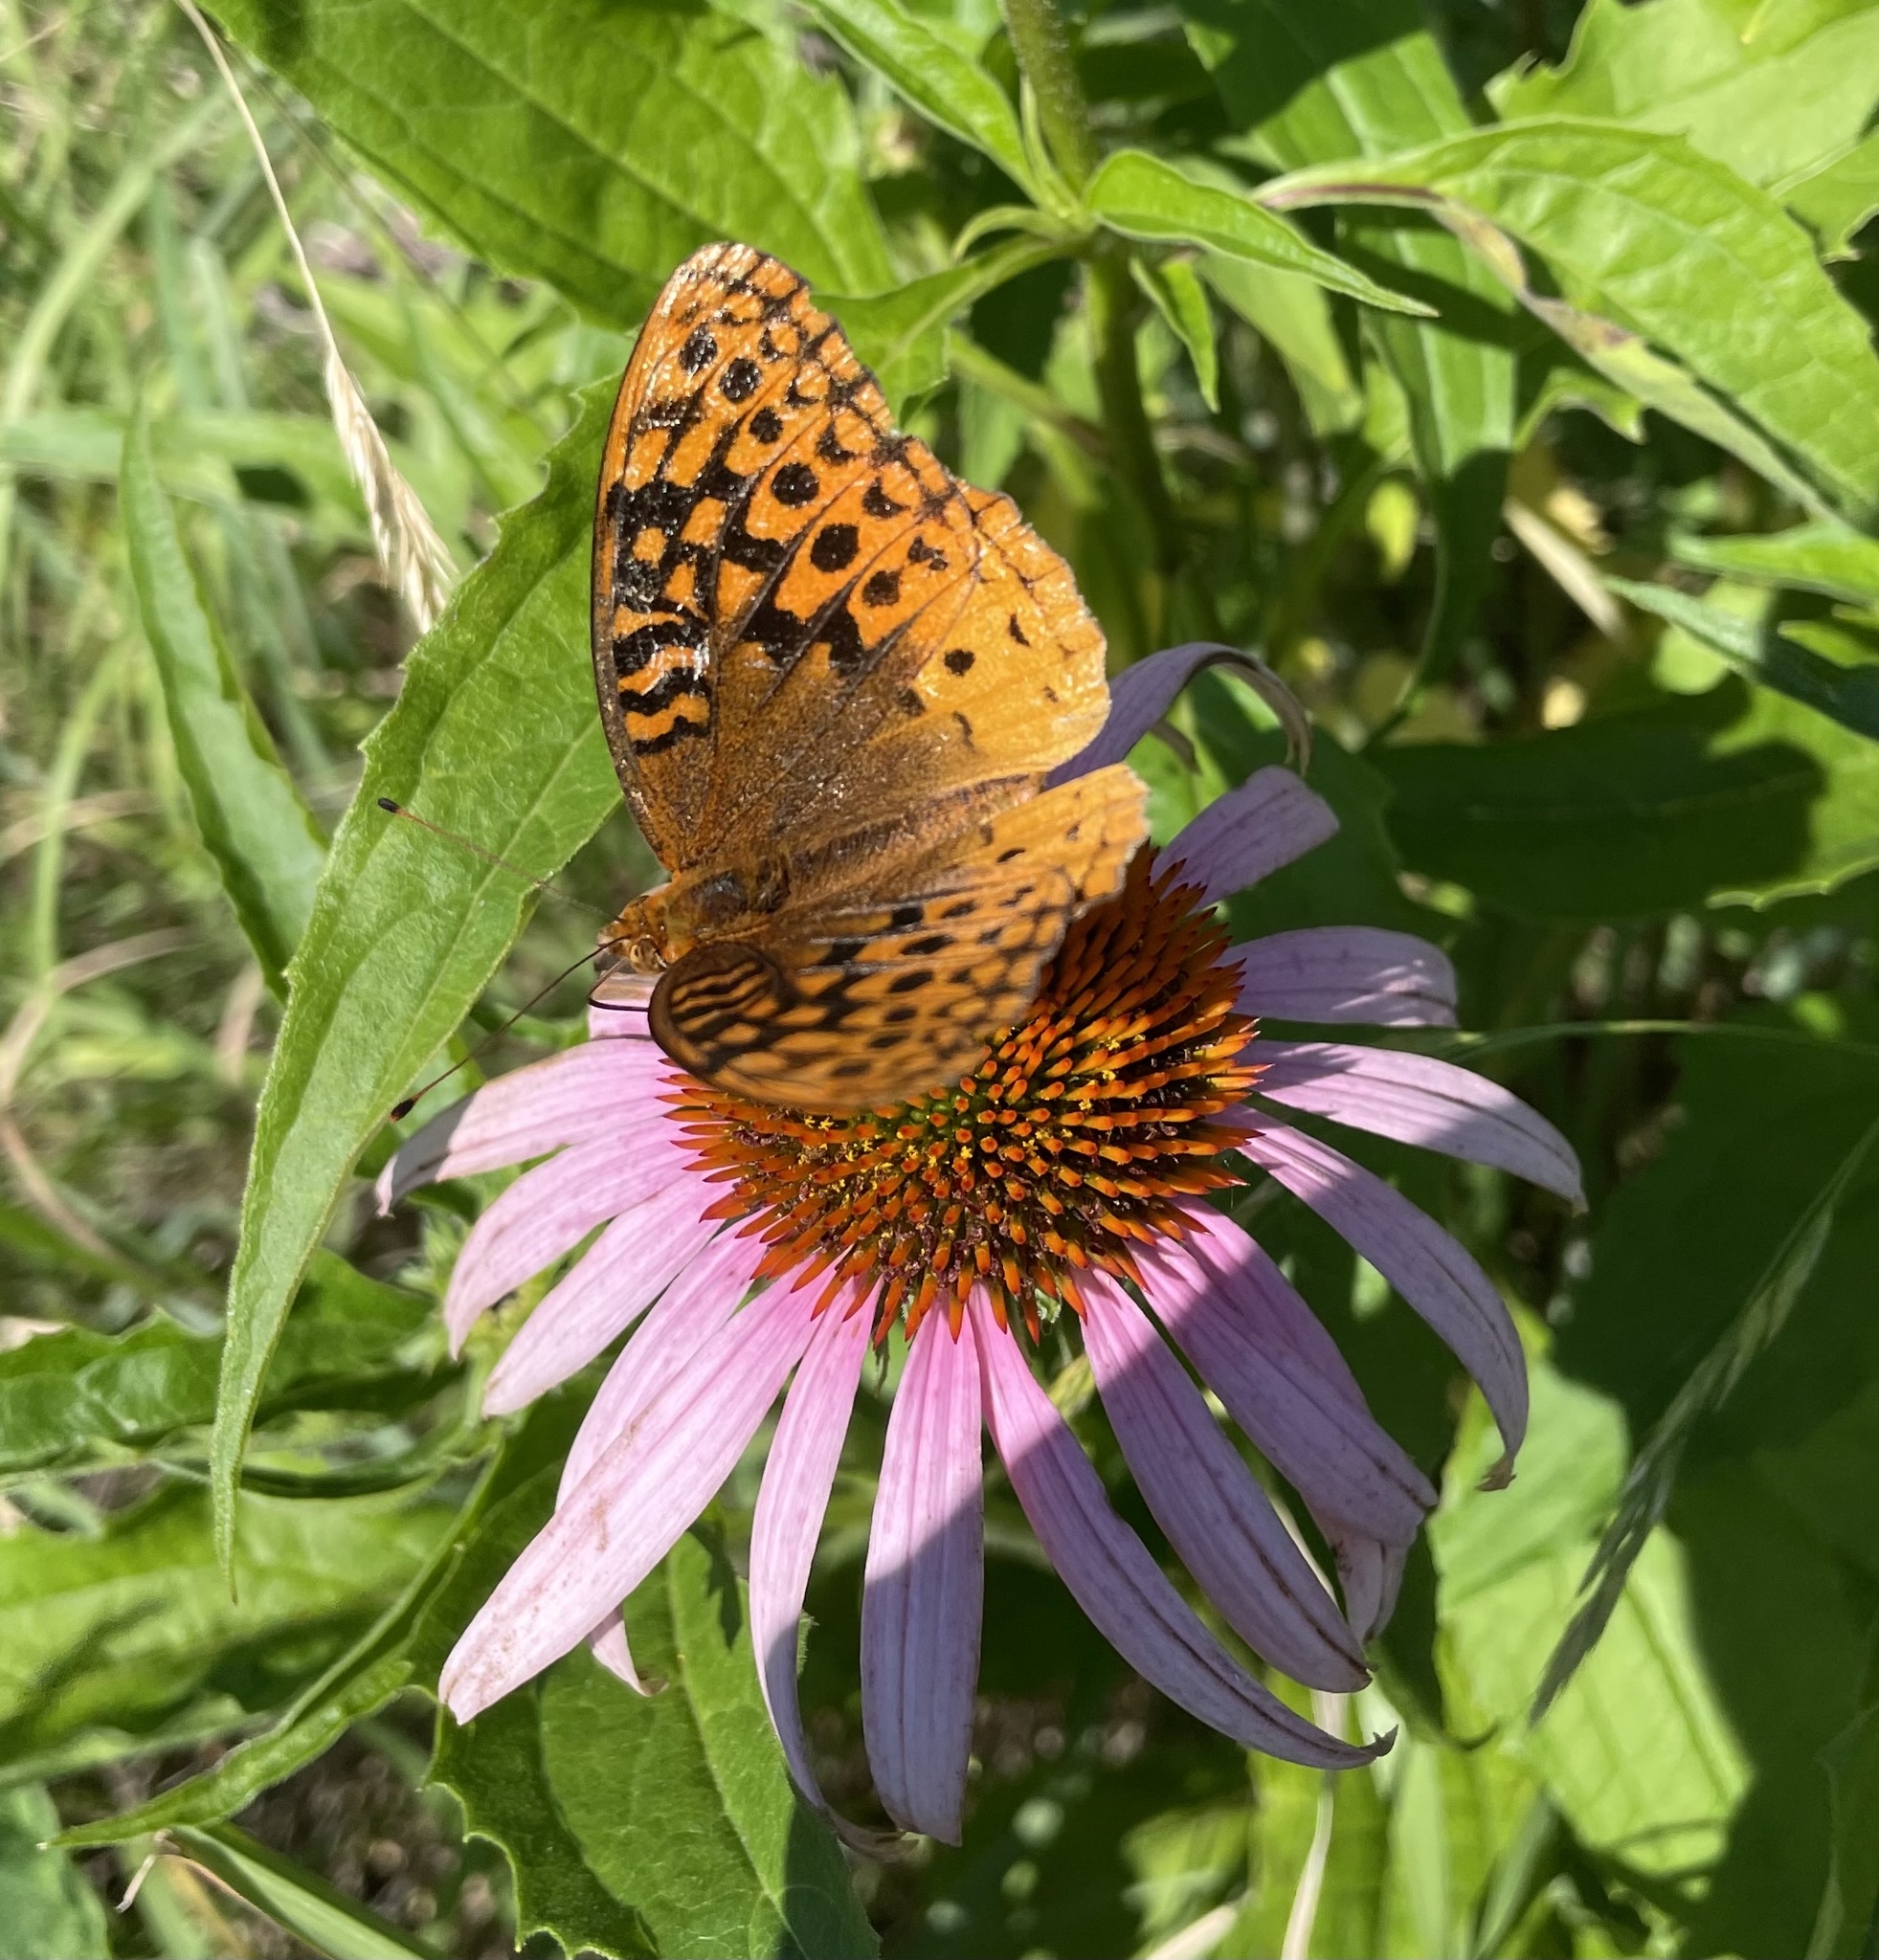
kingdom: Animalia
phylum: Arthropoda
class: Insecta
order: Lepidoptera
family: Nymphalidae
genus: Speyeria
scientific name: Speyeria cybele
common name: Great spangled fritillary
